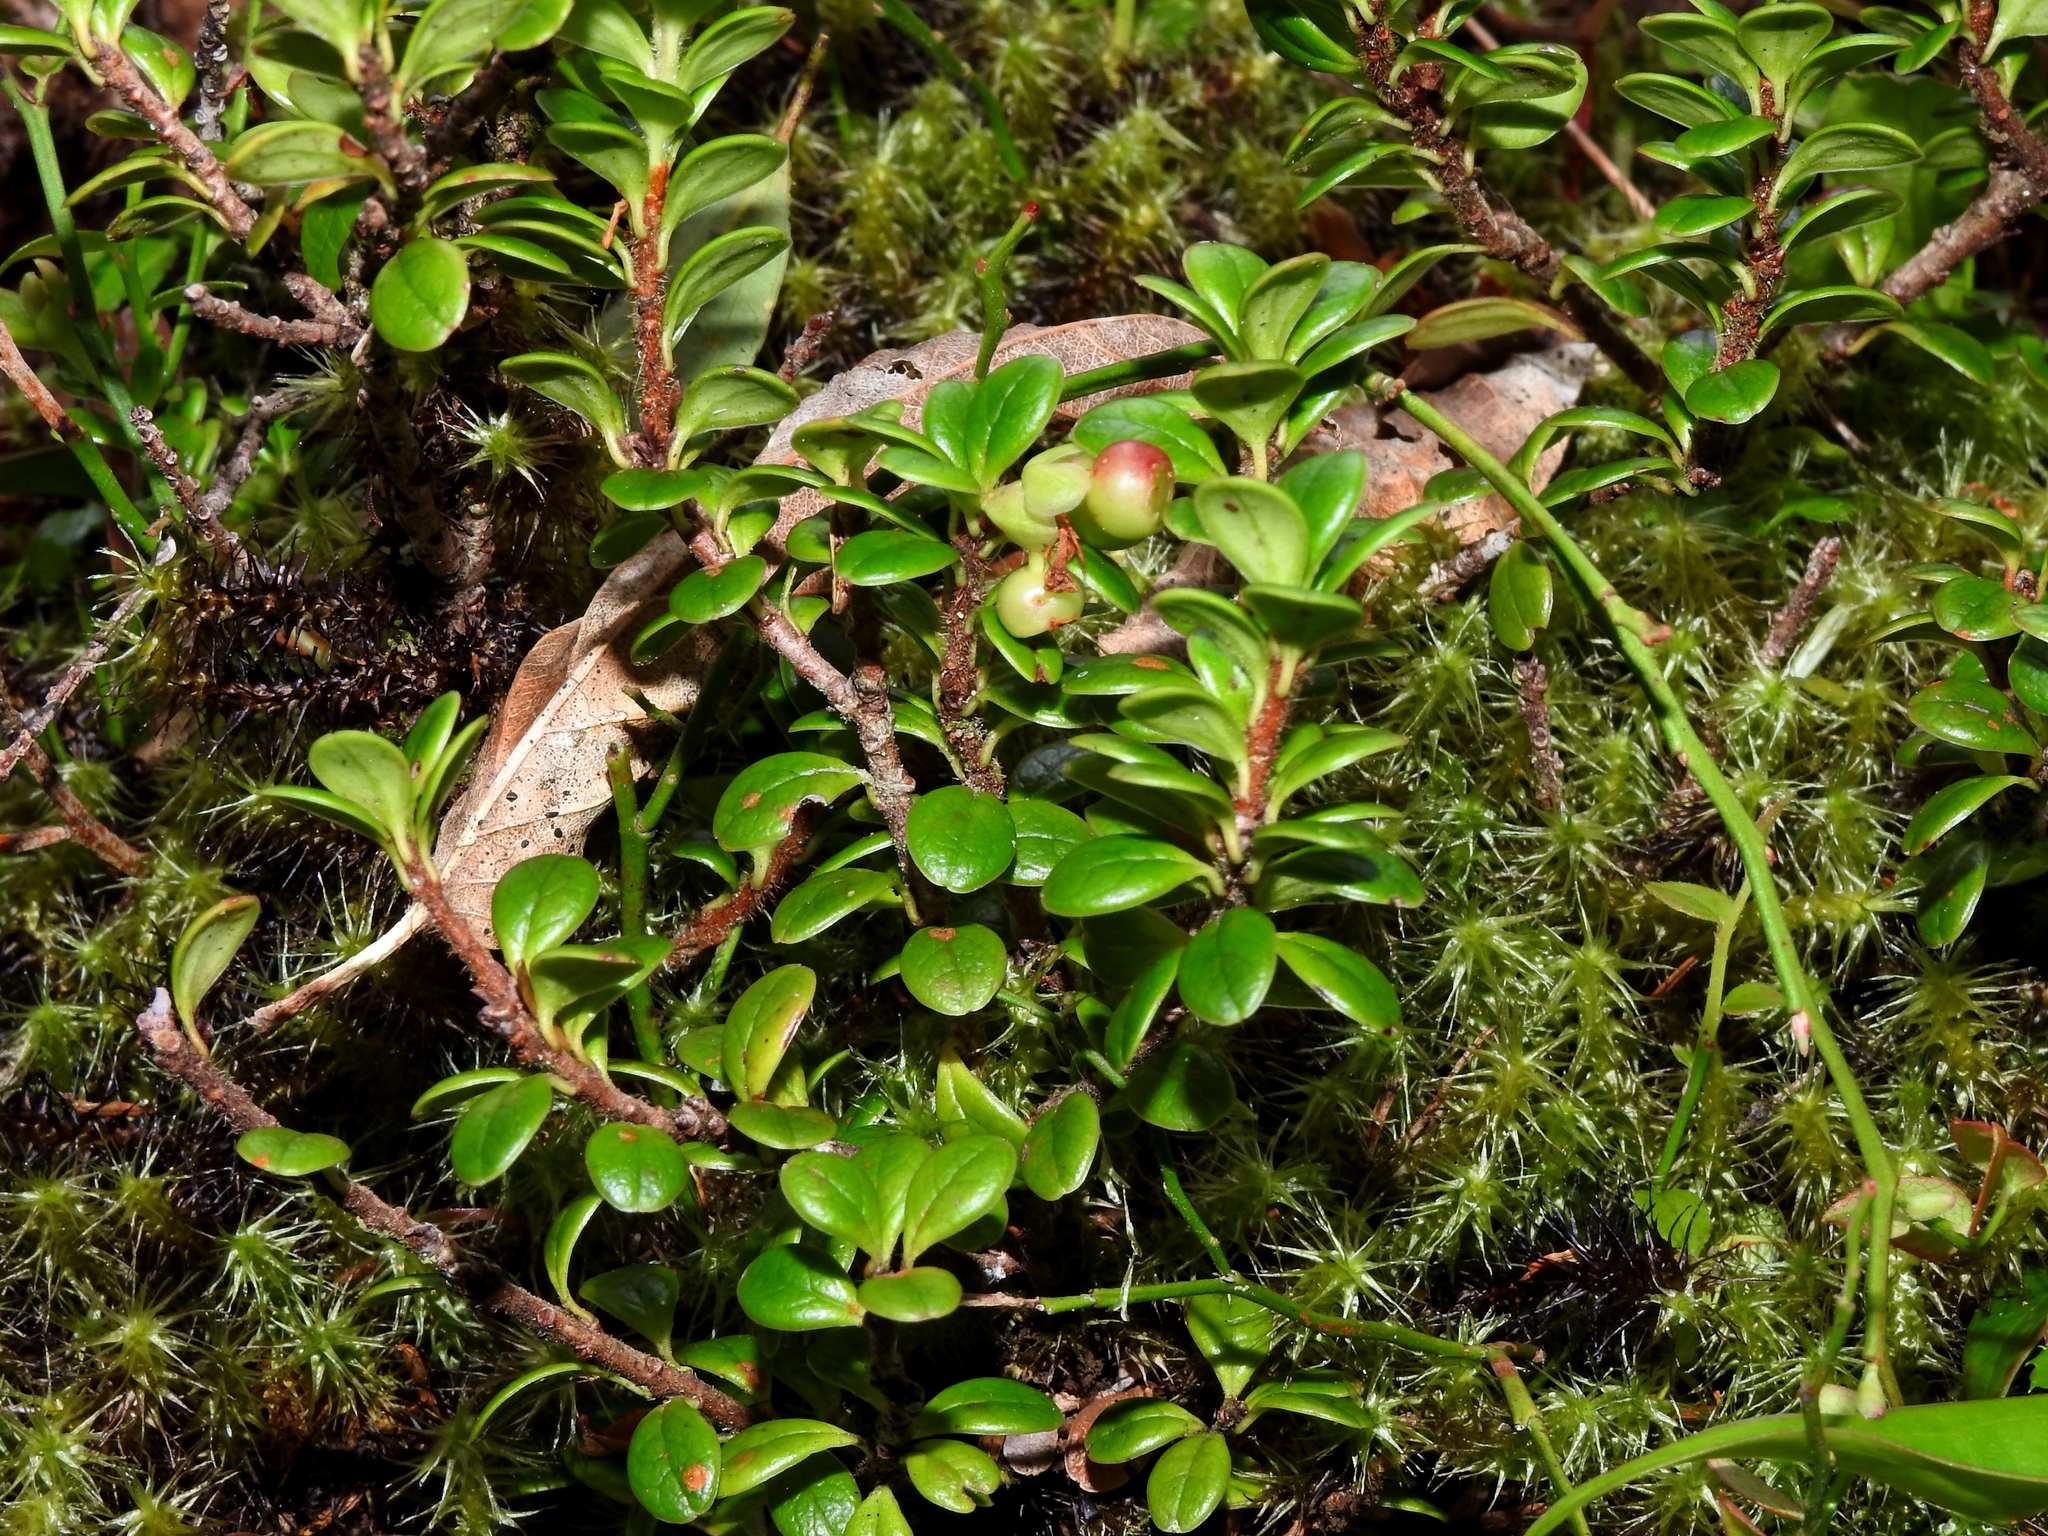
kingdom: Plantae
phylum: Tracheophyta
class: Magnoliopsida
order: Ericales
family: Ericaceae
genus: Vaccinium
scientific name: Vaccinium delavayi
